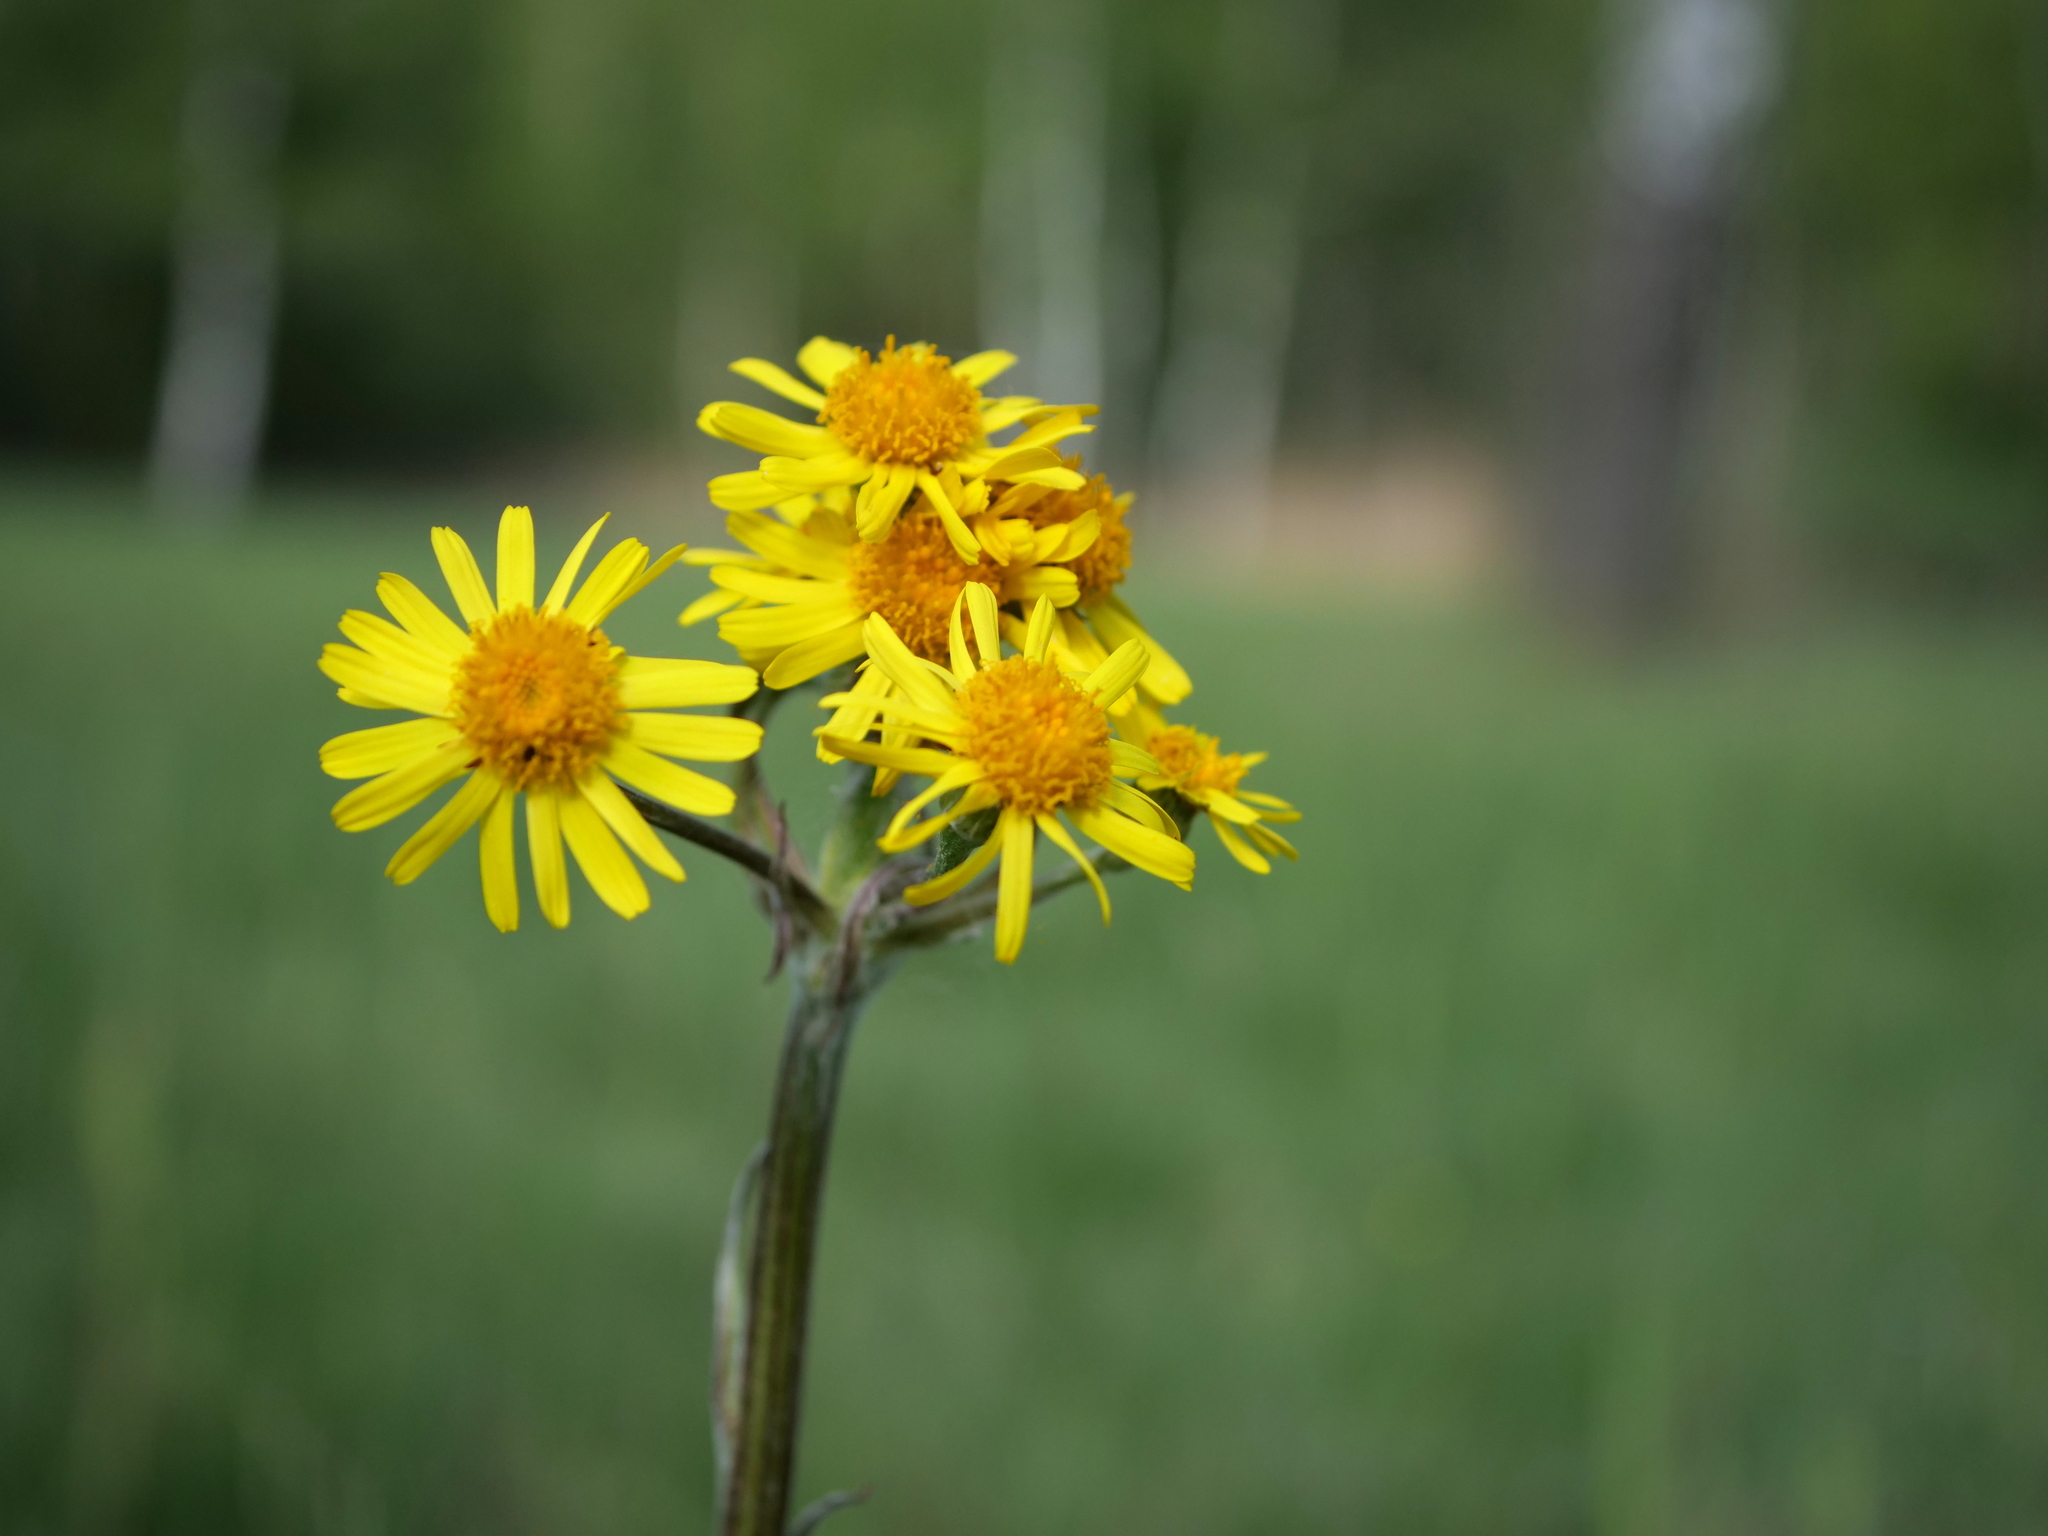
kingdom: Plantae
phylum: Tracheophyta
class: Magnoliopsida
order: Asterales
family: Asteraceae
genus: Tephroseris
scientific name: Tephroseris helenitis
